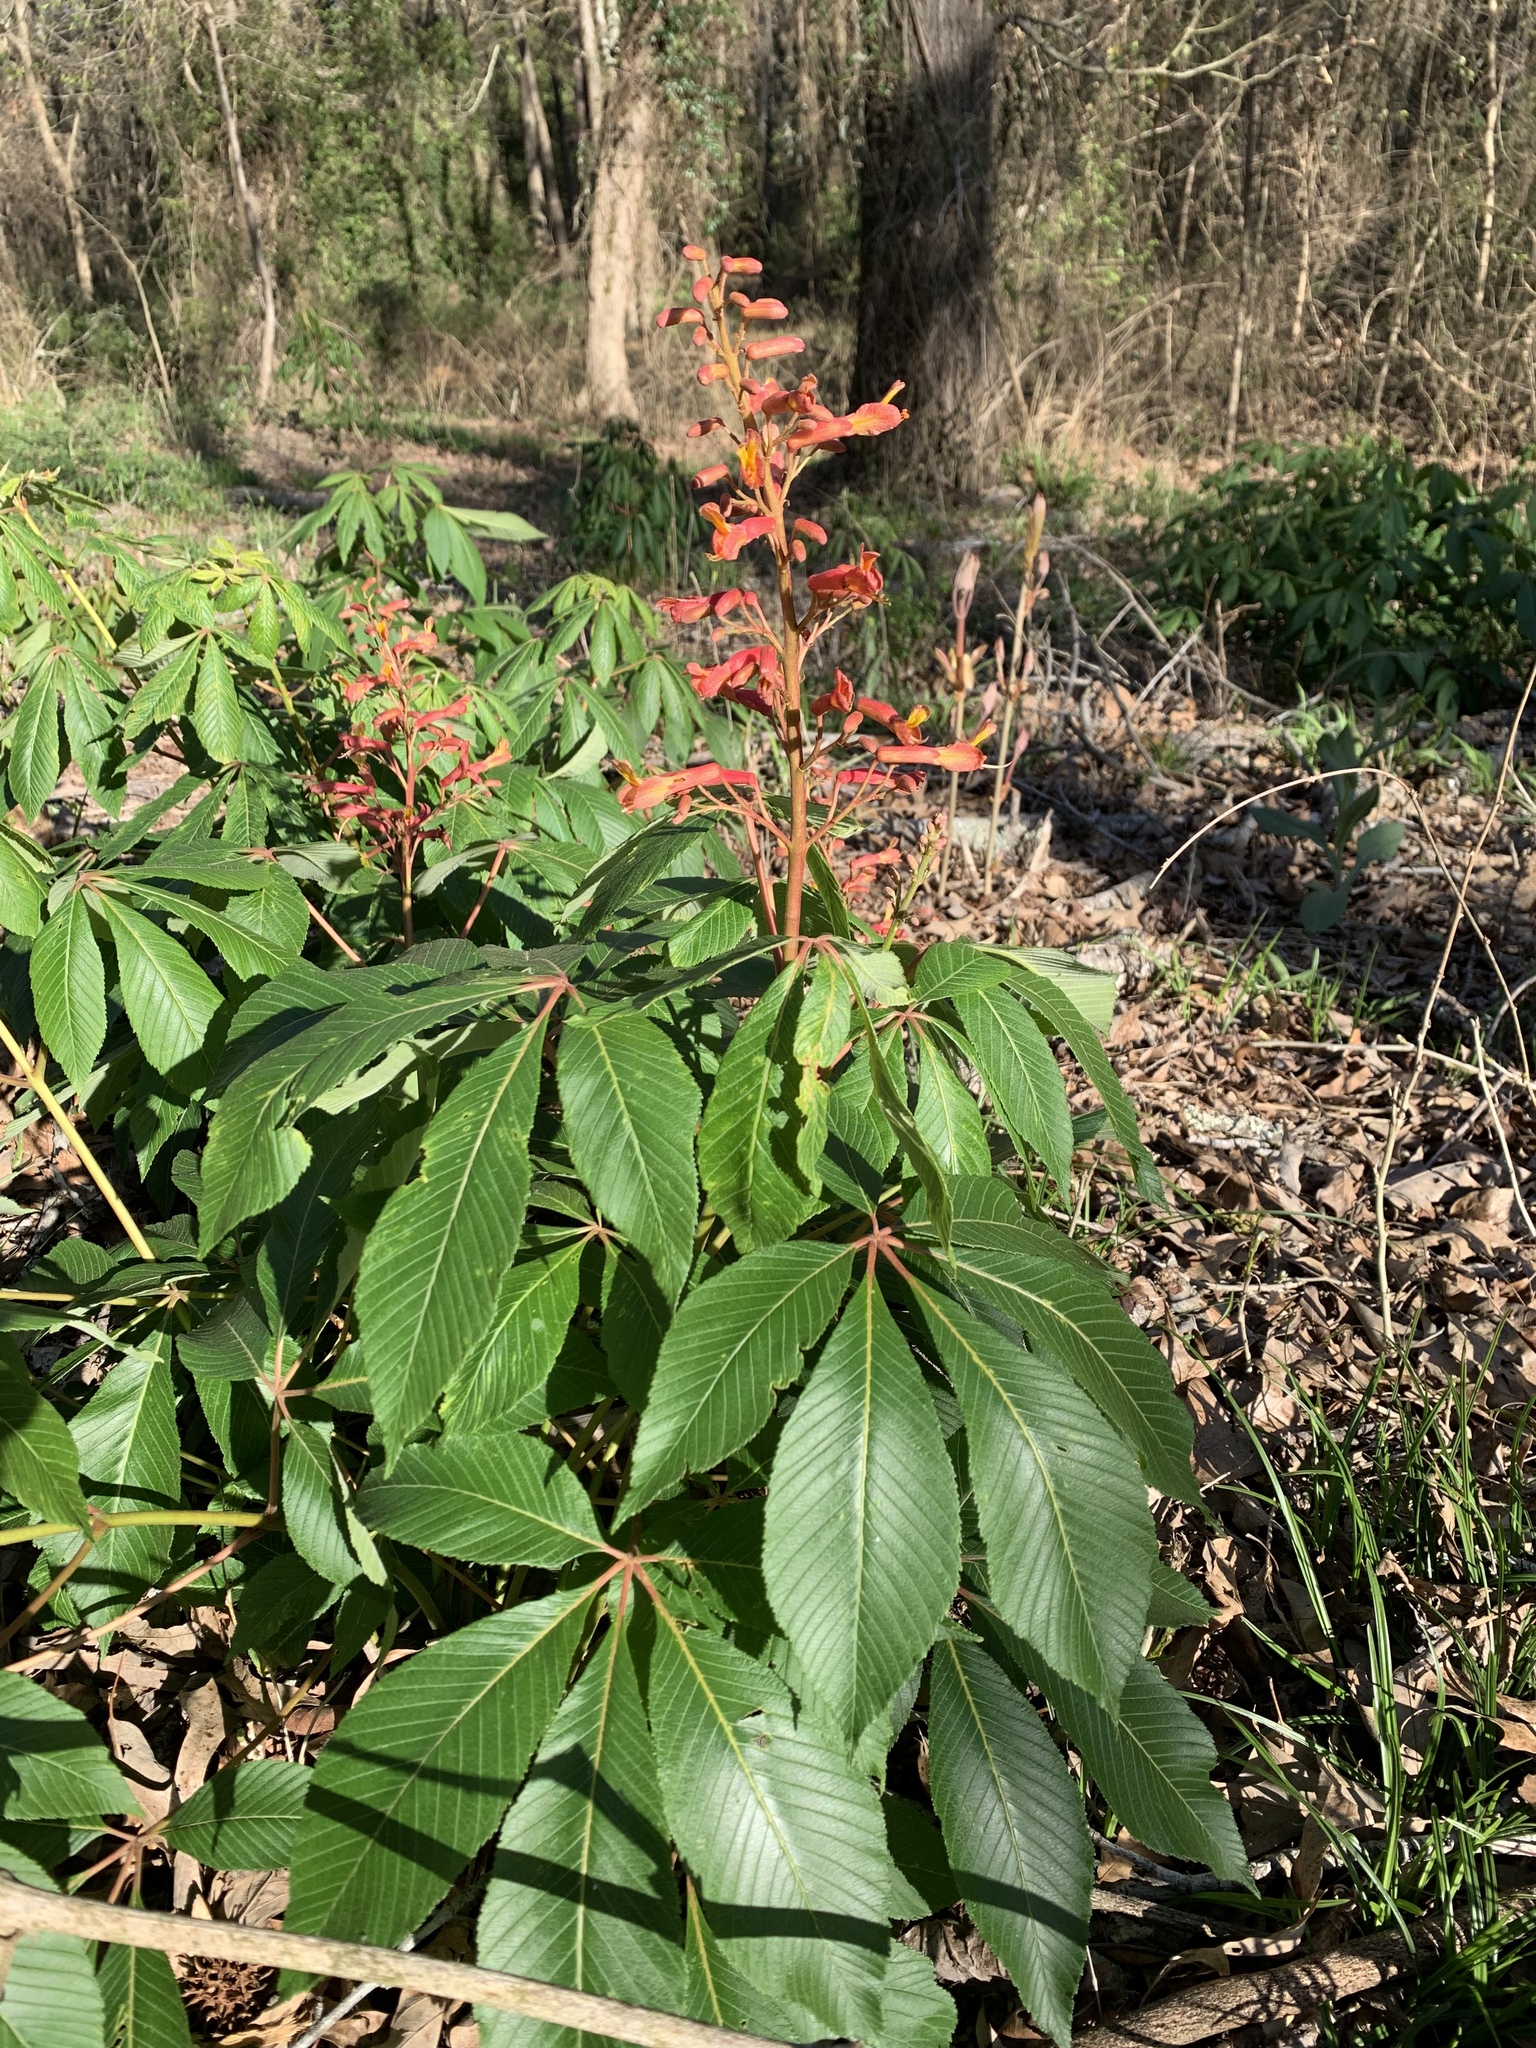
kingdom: Plantae
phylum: Tracheophyta
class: Magnoliopsida
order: Sapindales
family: Sapindaceae
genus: Aesculus
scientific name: Aesculus pavia
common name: Red buckeye
